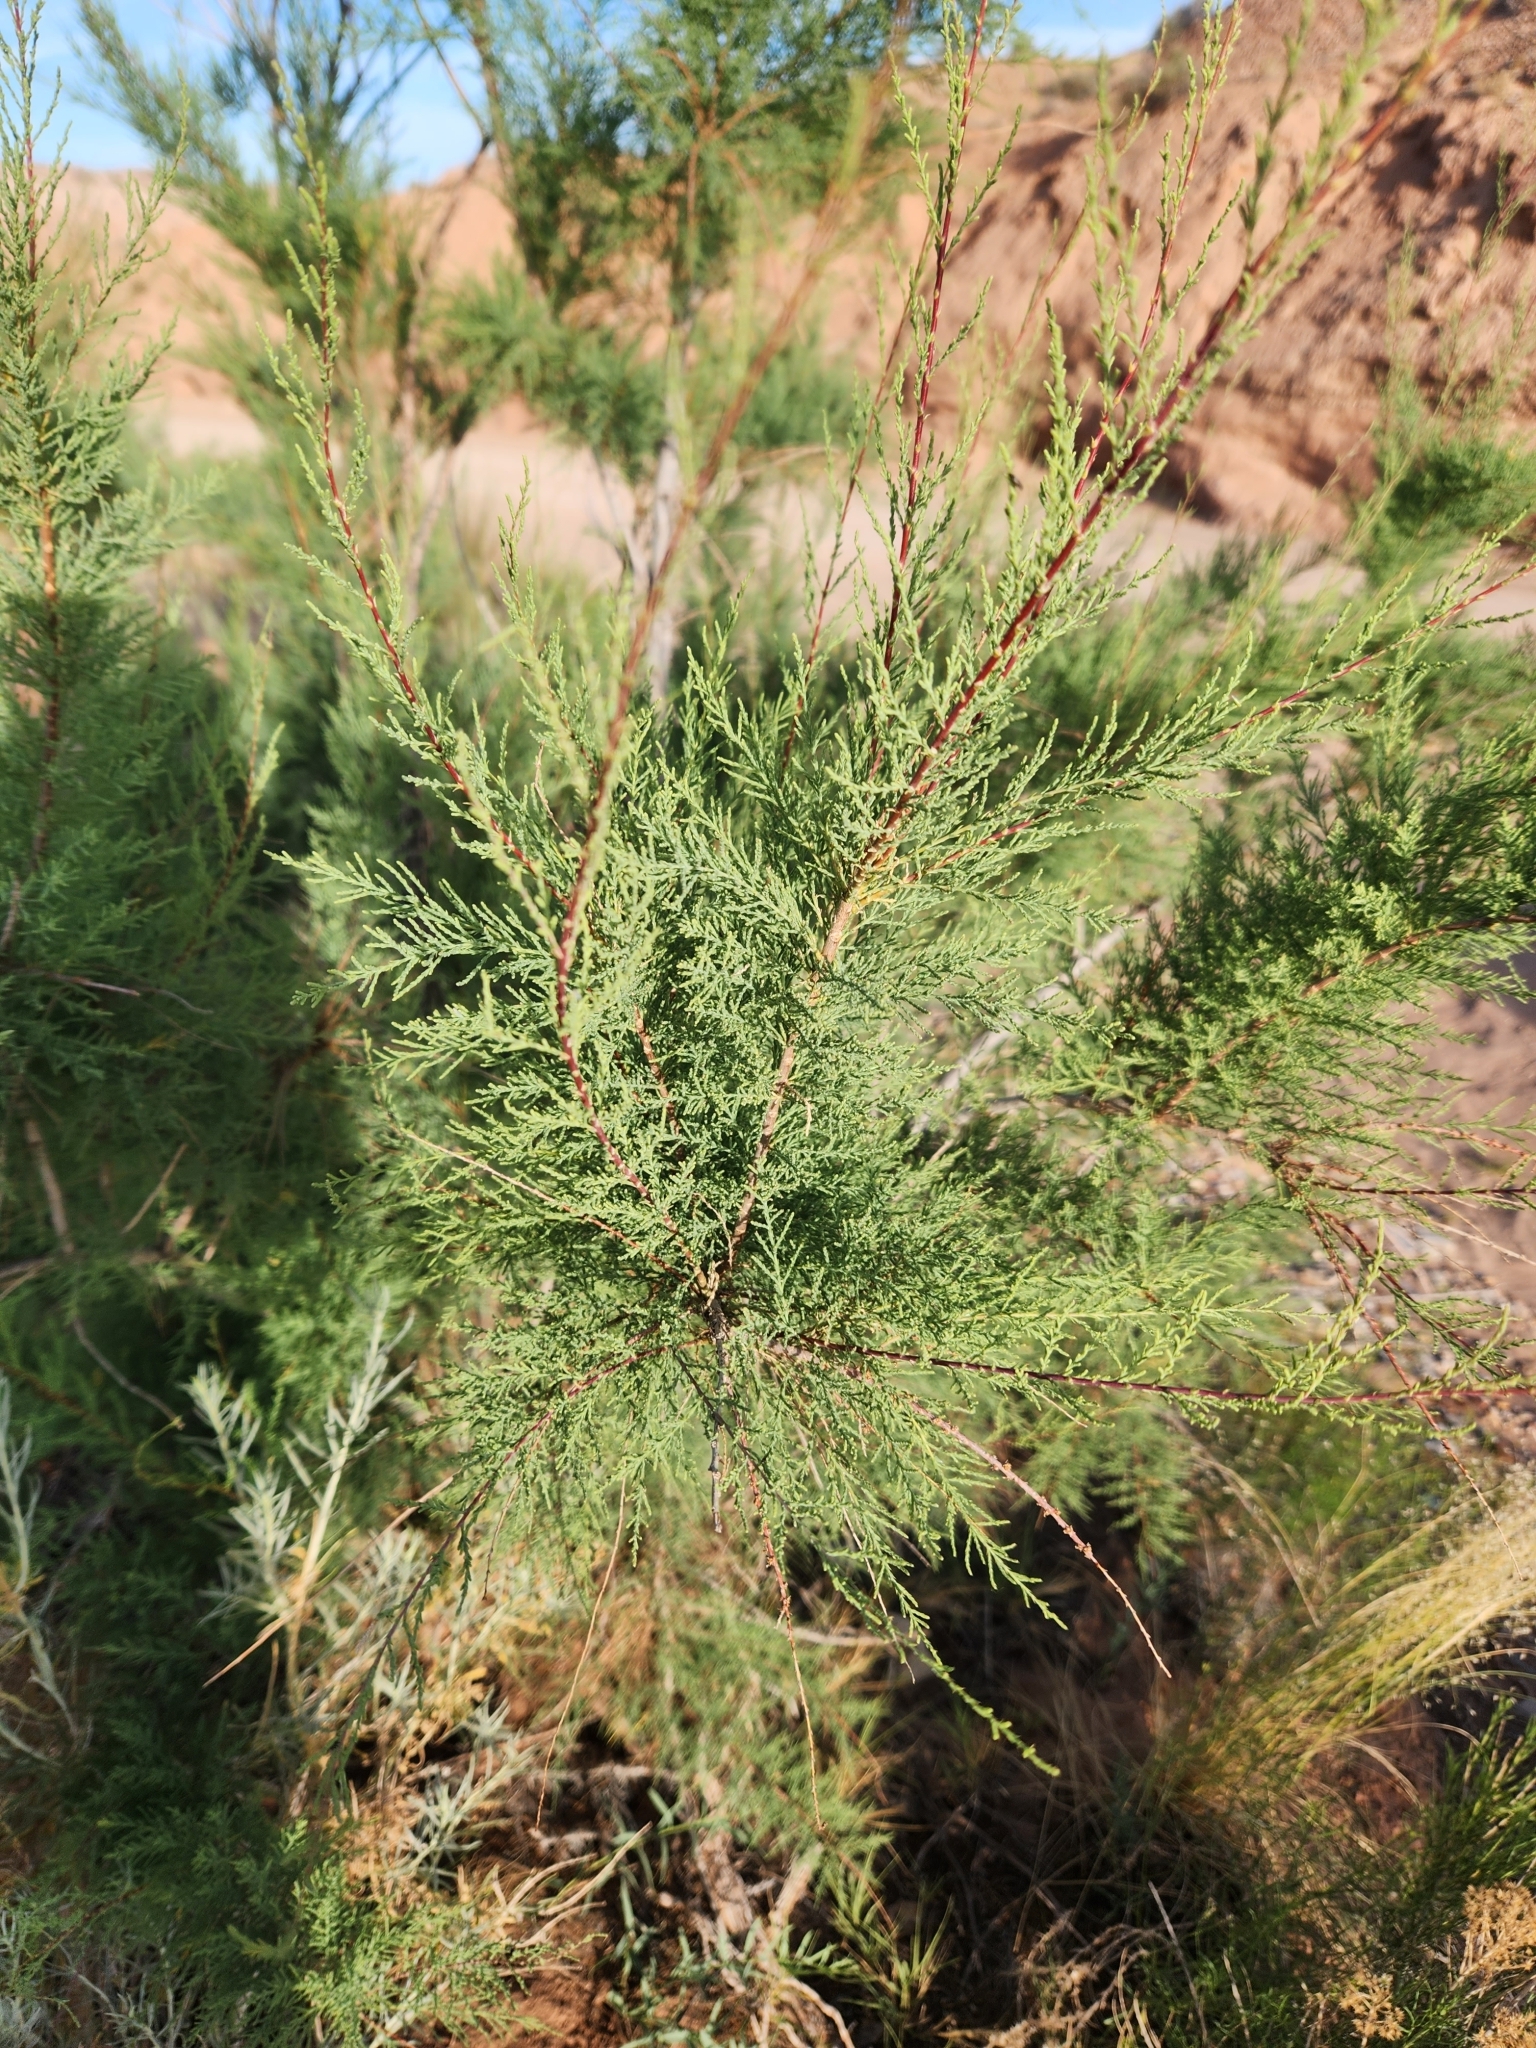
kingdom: Plantae
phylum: Tracheophyta
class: Magnoliopsida
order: Caryophyllales
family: Tamaricaceae
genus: Tamarix
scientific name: Tamarix
